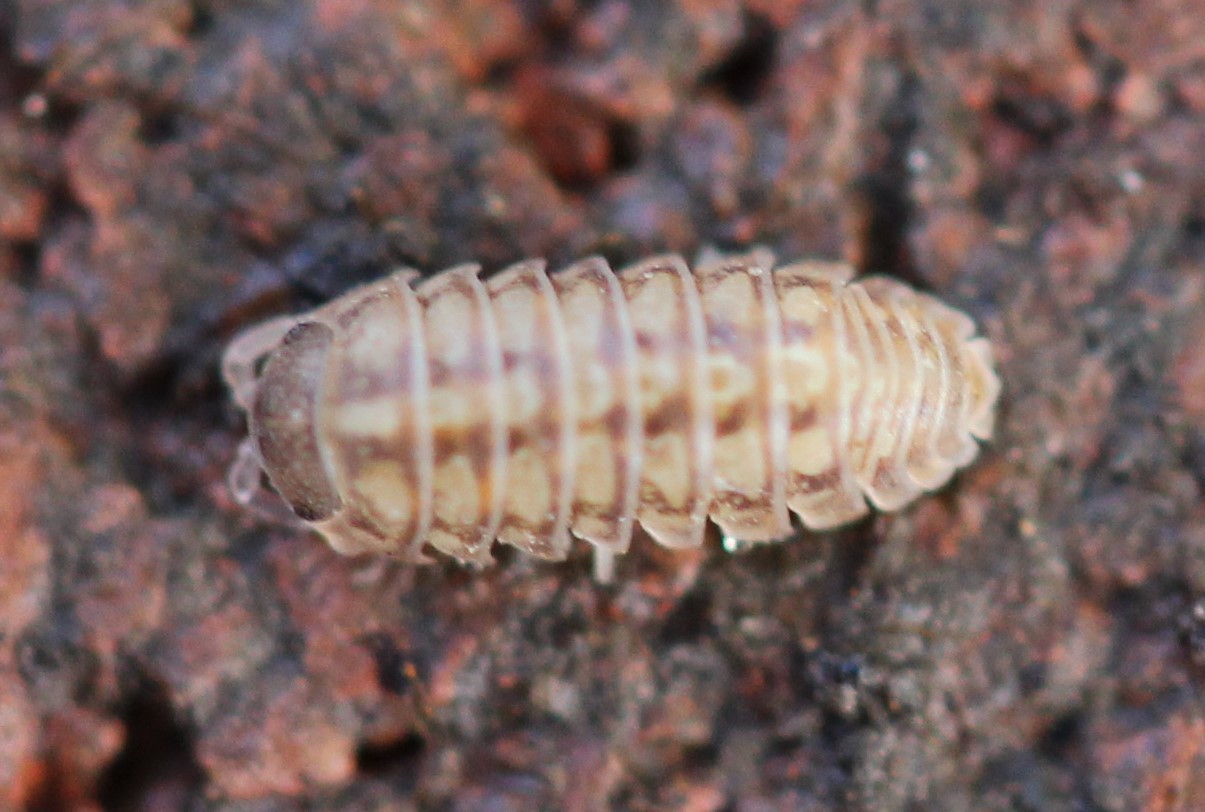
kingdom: Animalia
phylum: Arthropoda
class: Malacostraca
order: Isopoda
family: Armadillidiidae
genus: Armadillidium
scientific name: Armadillidium vulgare
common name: Common pill woodlouse
